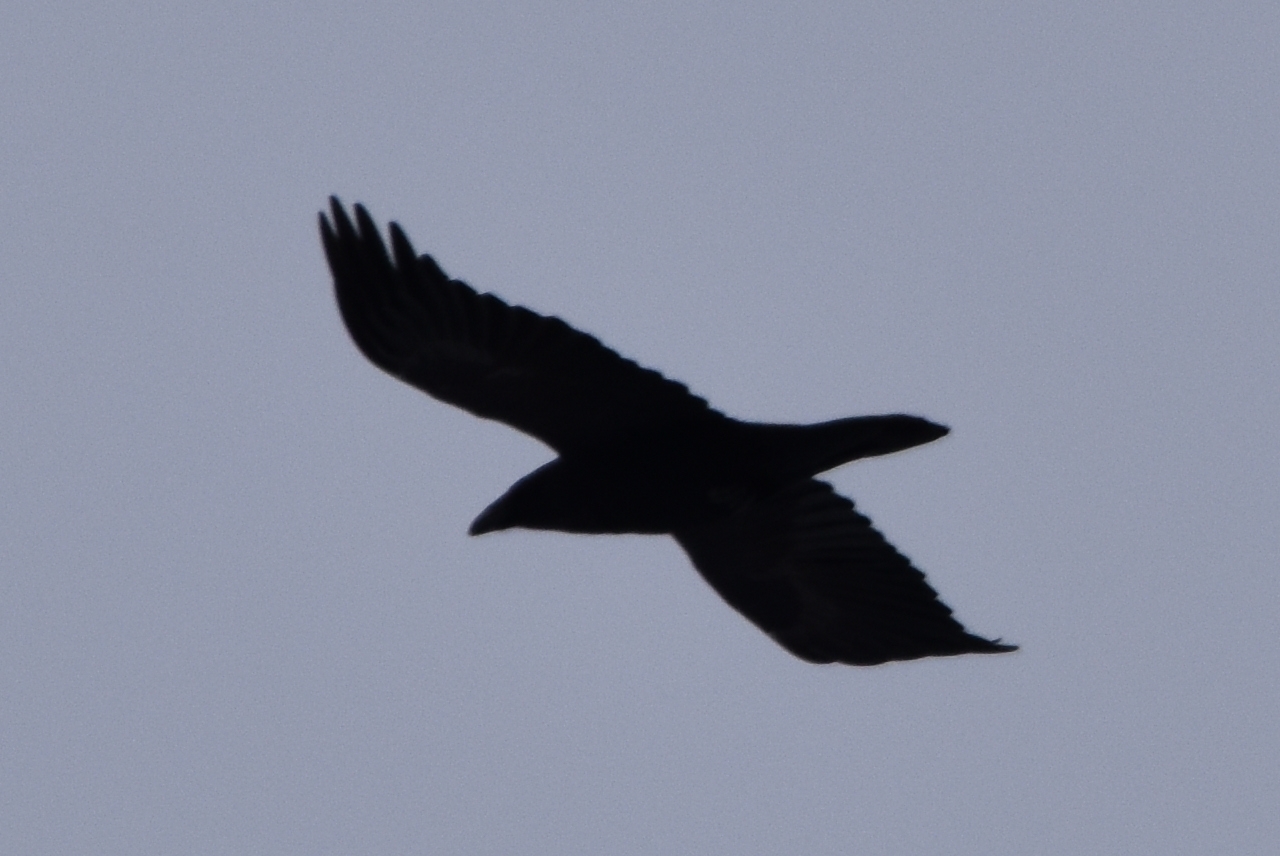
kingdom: Animalia
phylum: Chordata
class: Aves
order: Passeriformes
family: Corvidae
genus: Corvus
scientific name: Corvus corax
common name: Common raven
